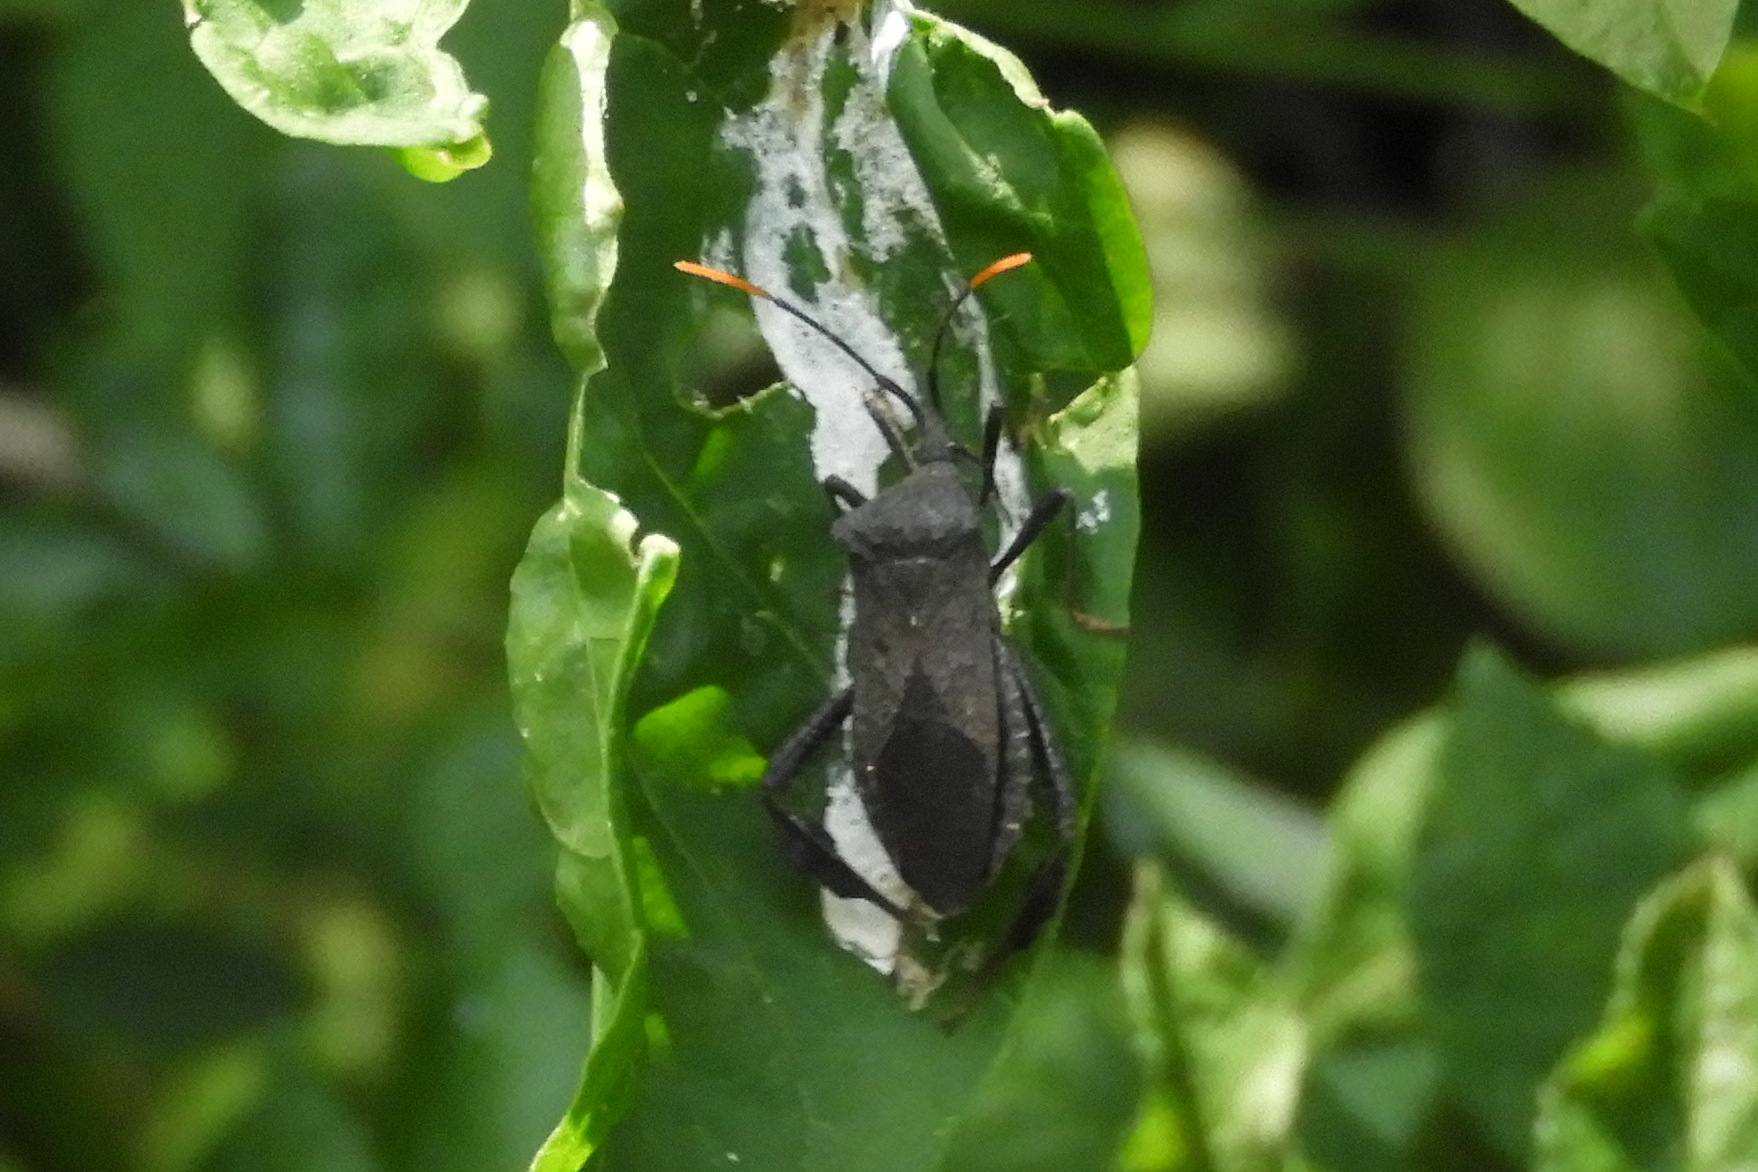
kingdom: Animalia
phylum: Arthropoda
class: Insecta
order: Hemiptera
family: Coreidae
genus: Acanthocephala
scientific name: Acanthocephala terminalis
